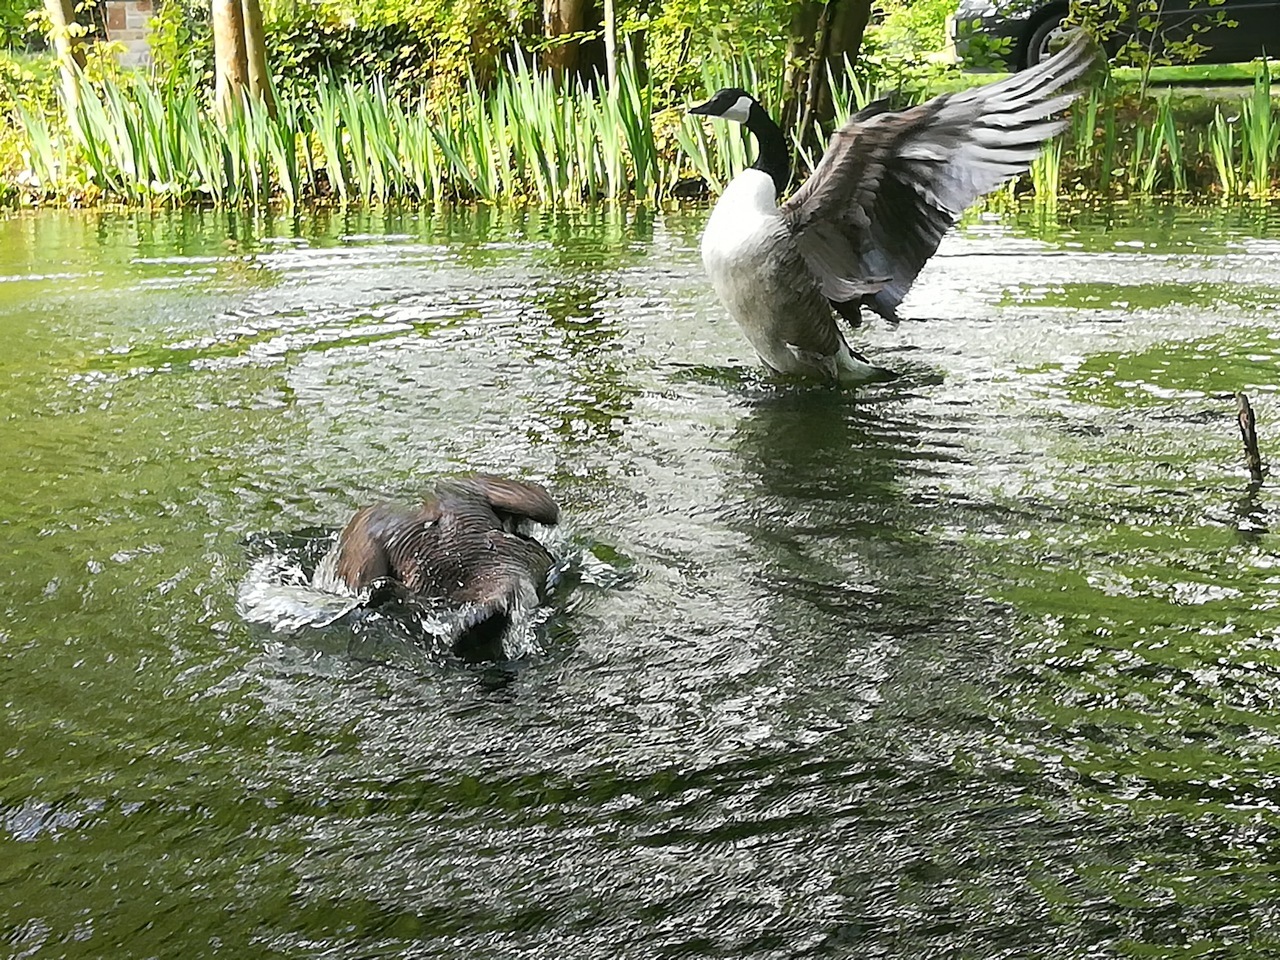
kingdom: Animalia
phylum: Chordata
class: Aves
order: Anseriformes
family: Anatidae
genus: Branta
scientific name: Branta canadensis
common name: Canada goose
